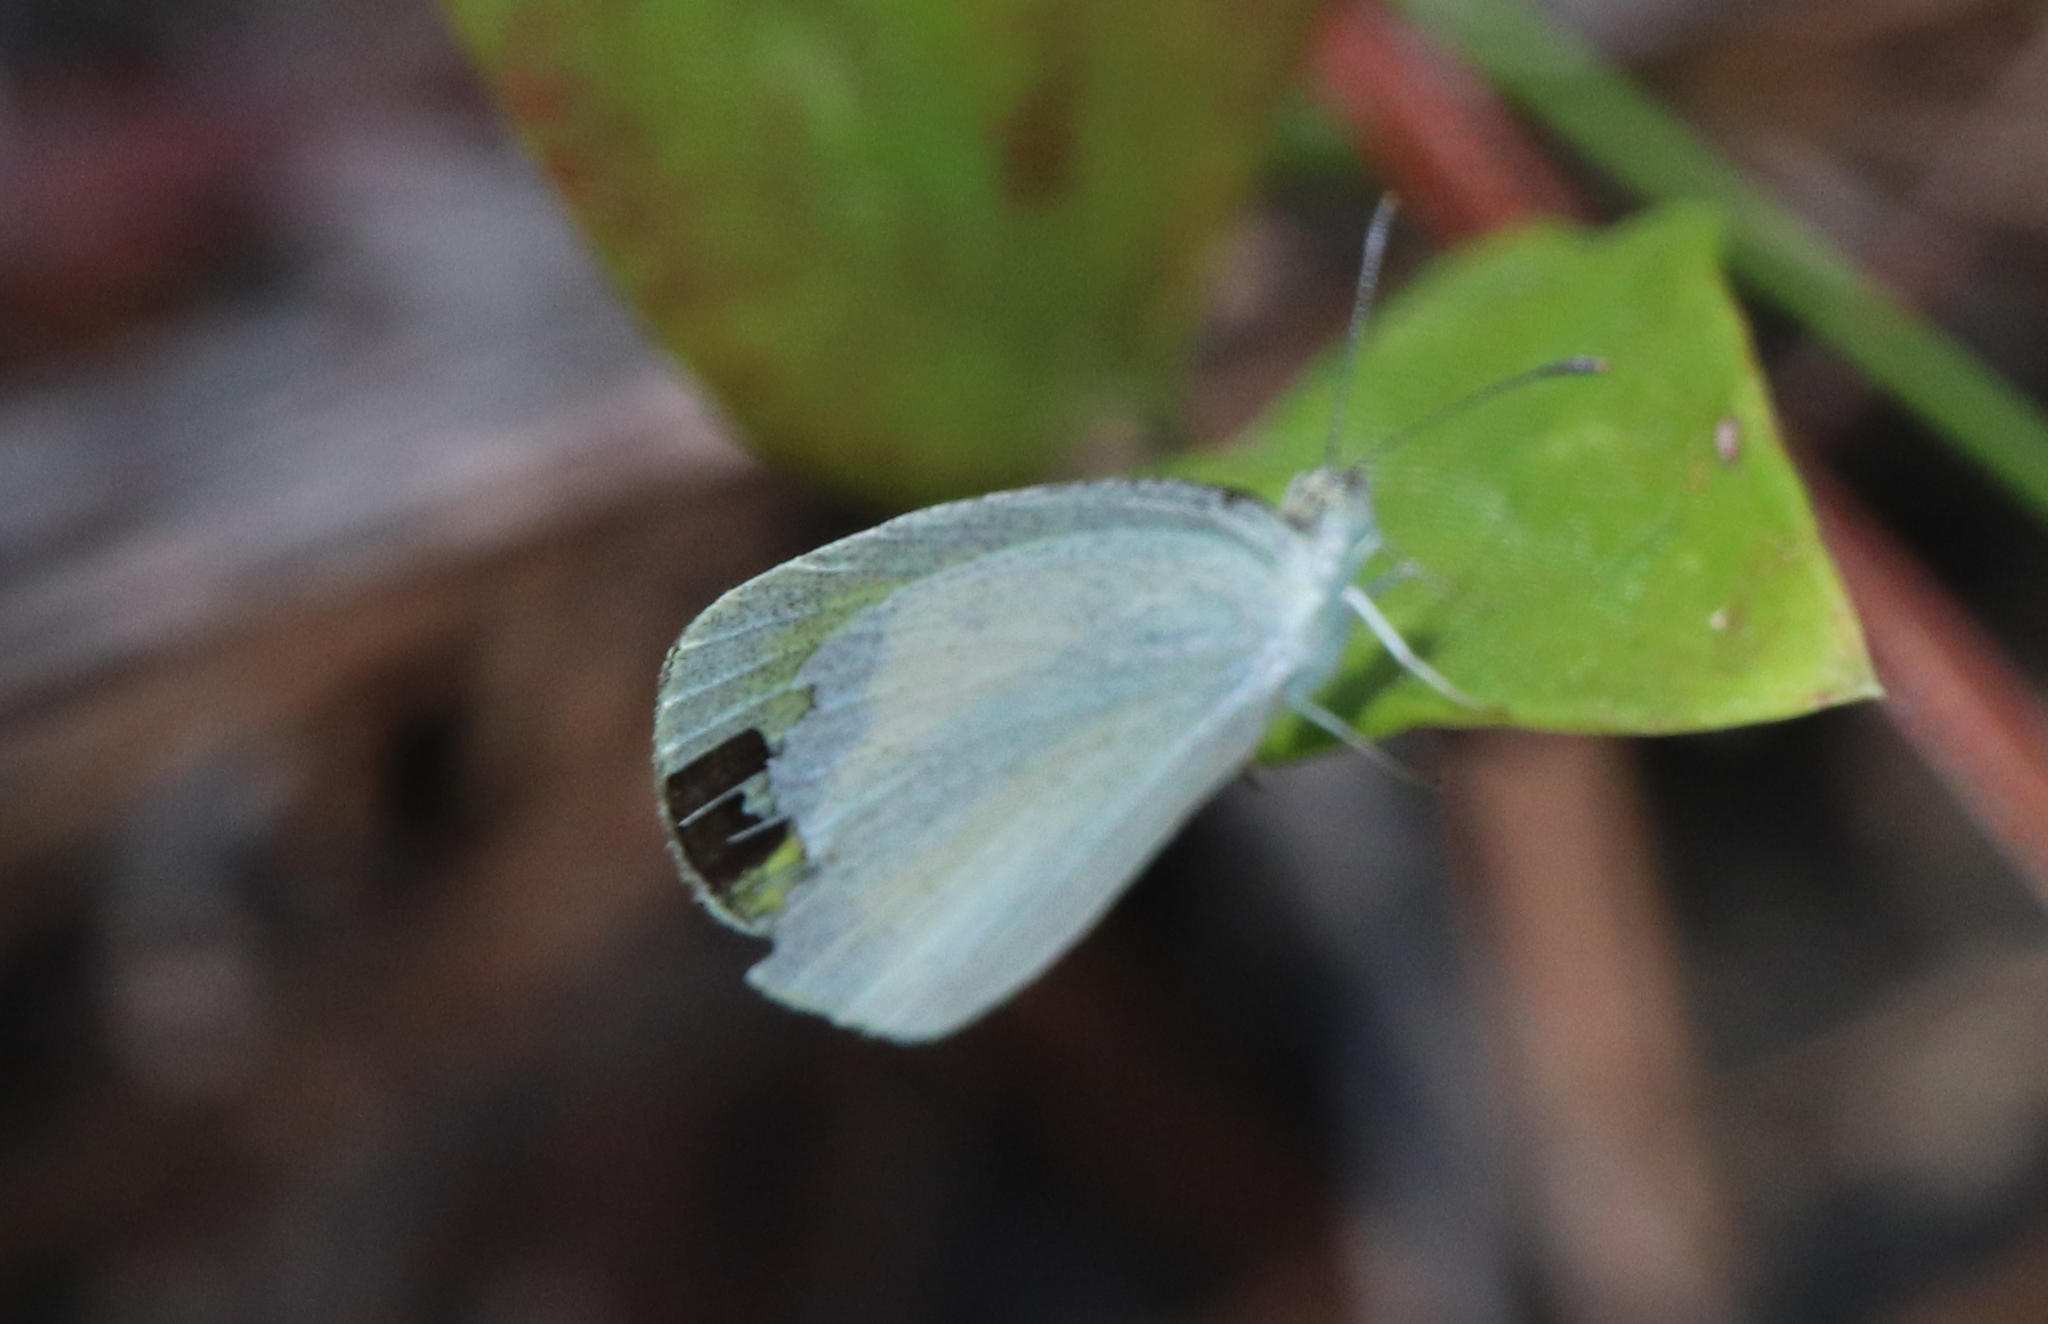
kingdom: Animalia
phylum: Arthropoda
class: Insecta
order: Lepidoptera
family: Pieridae
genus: Eurema
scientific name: Eurema daira
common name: Barred sulphur
